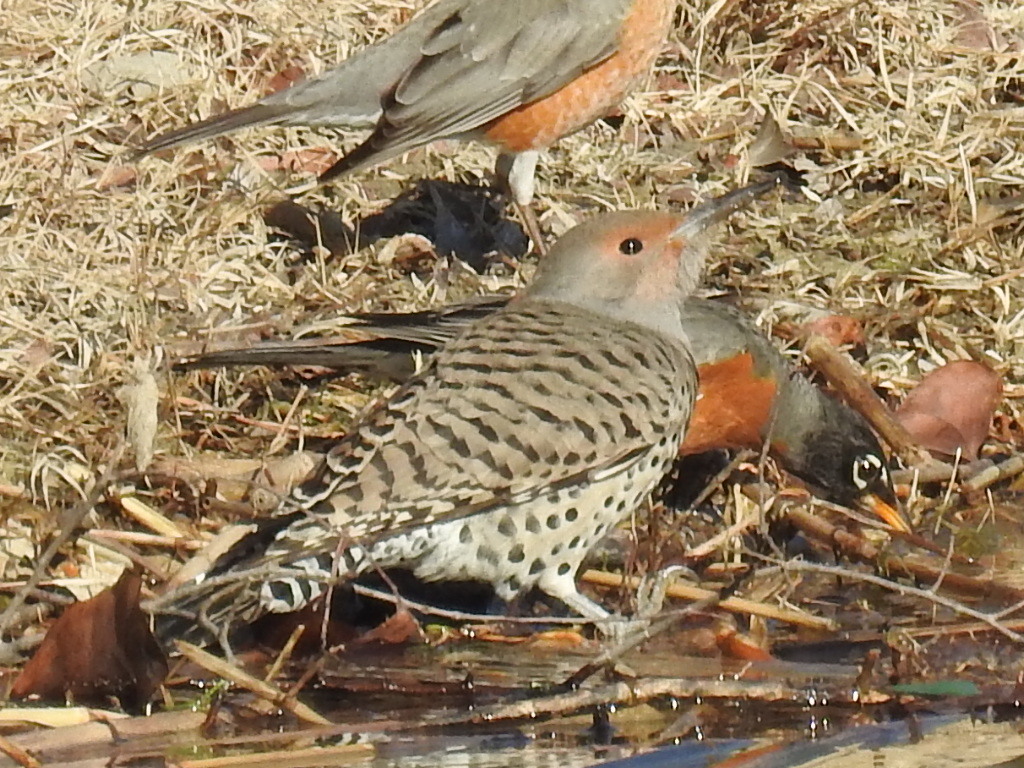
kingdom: Animalia
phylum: Chordata
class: Aves
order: Piciformes
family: Picidae
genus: Colaptes
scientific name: Colaptes auratus
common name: Northern flicker
